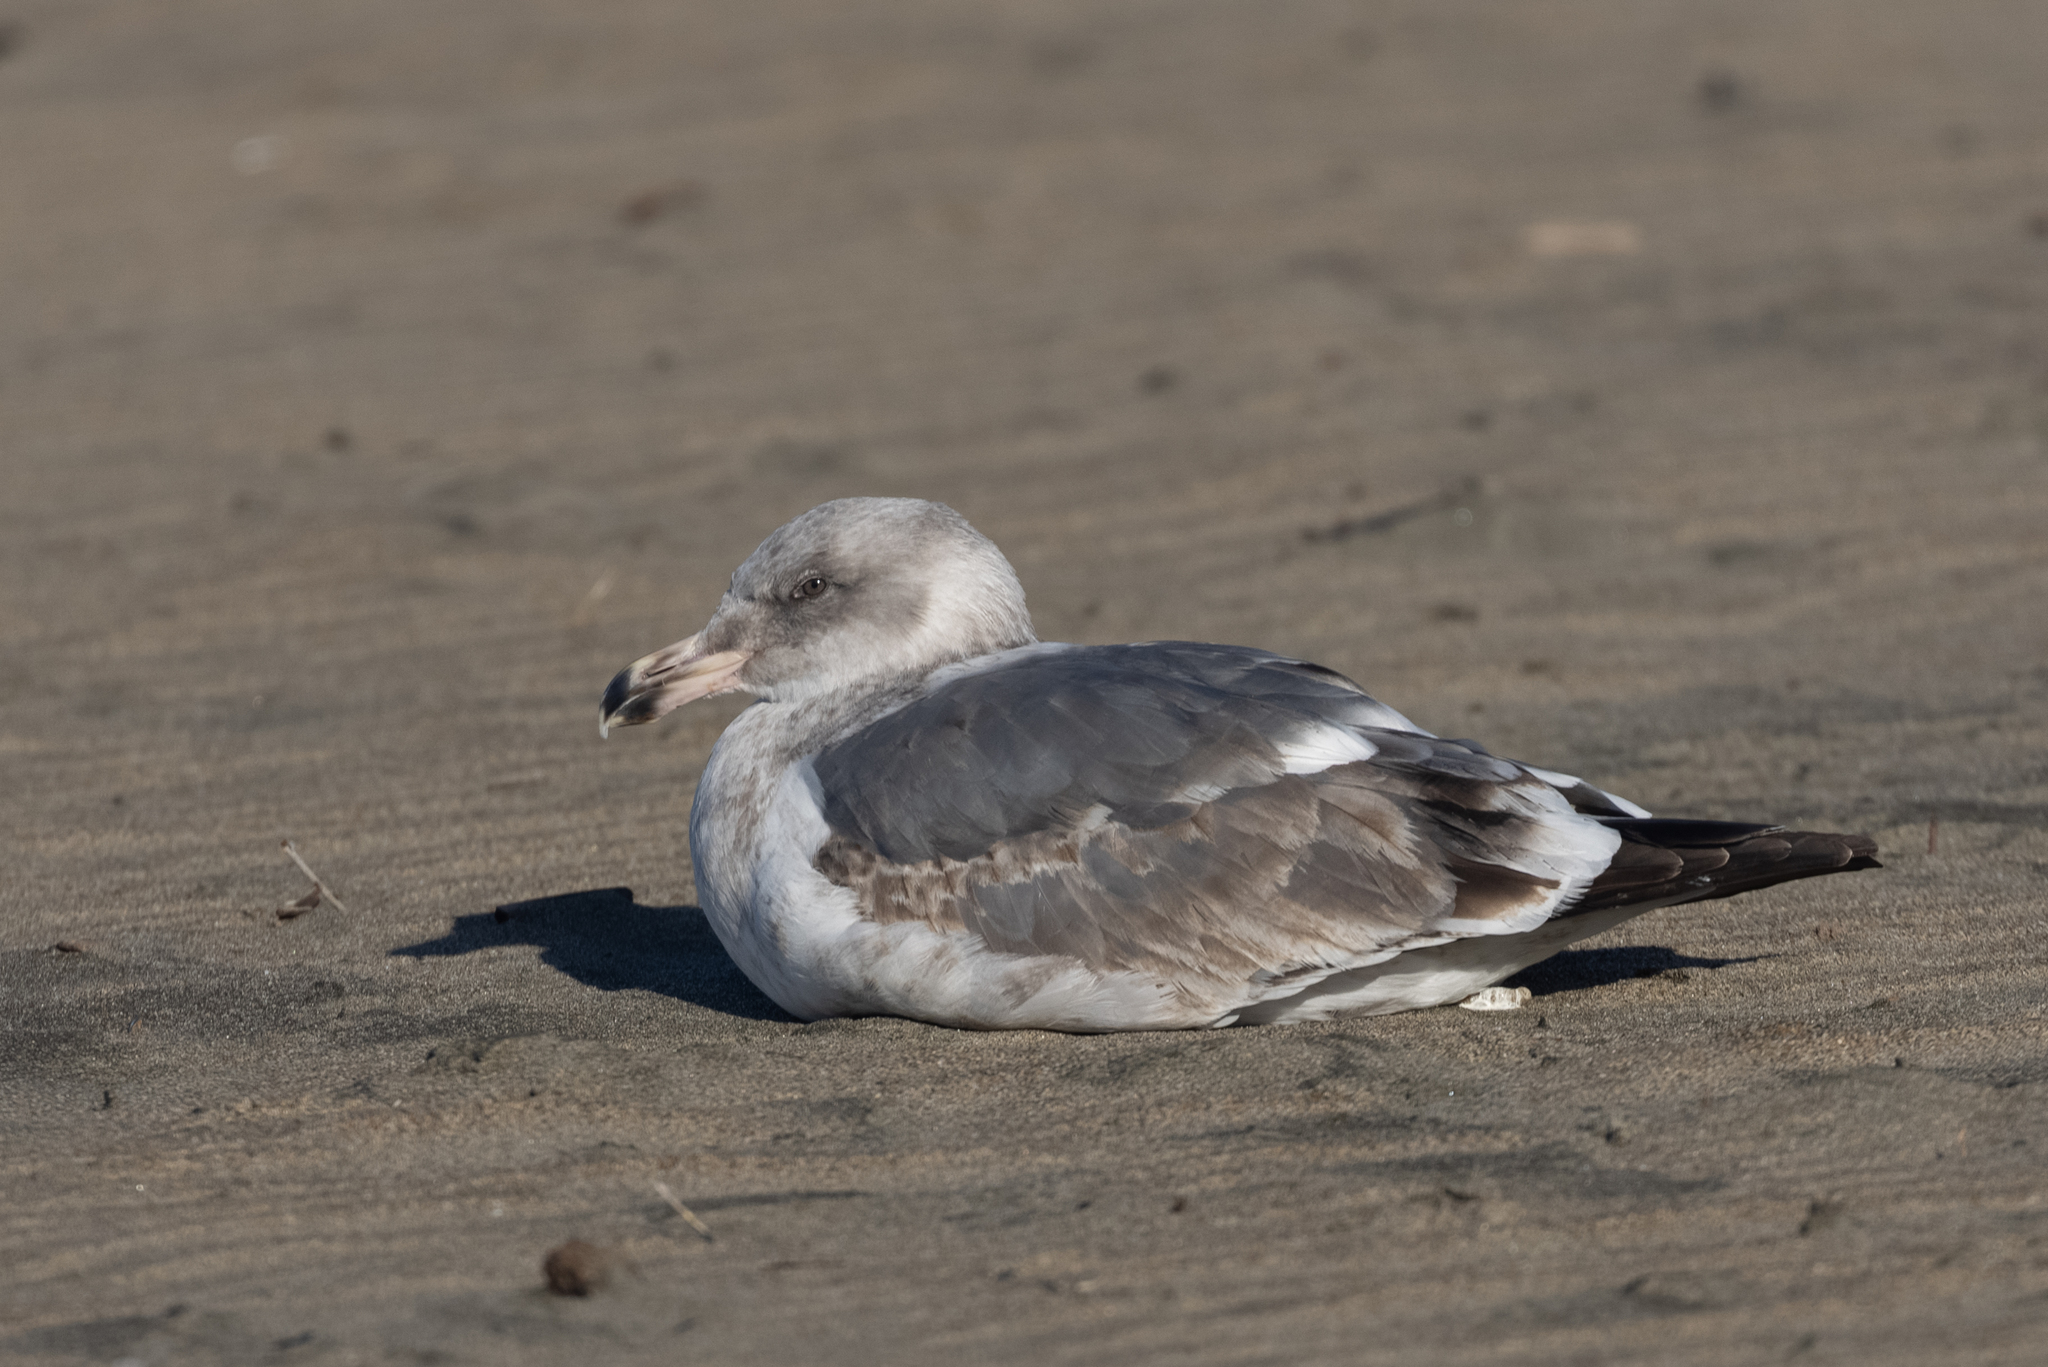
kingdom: Animalia
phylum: Chordata
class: Aves
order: Charadriiformes
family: Laridae
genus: Larus
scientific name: Larus occidentalis
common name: Western gull
